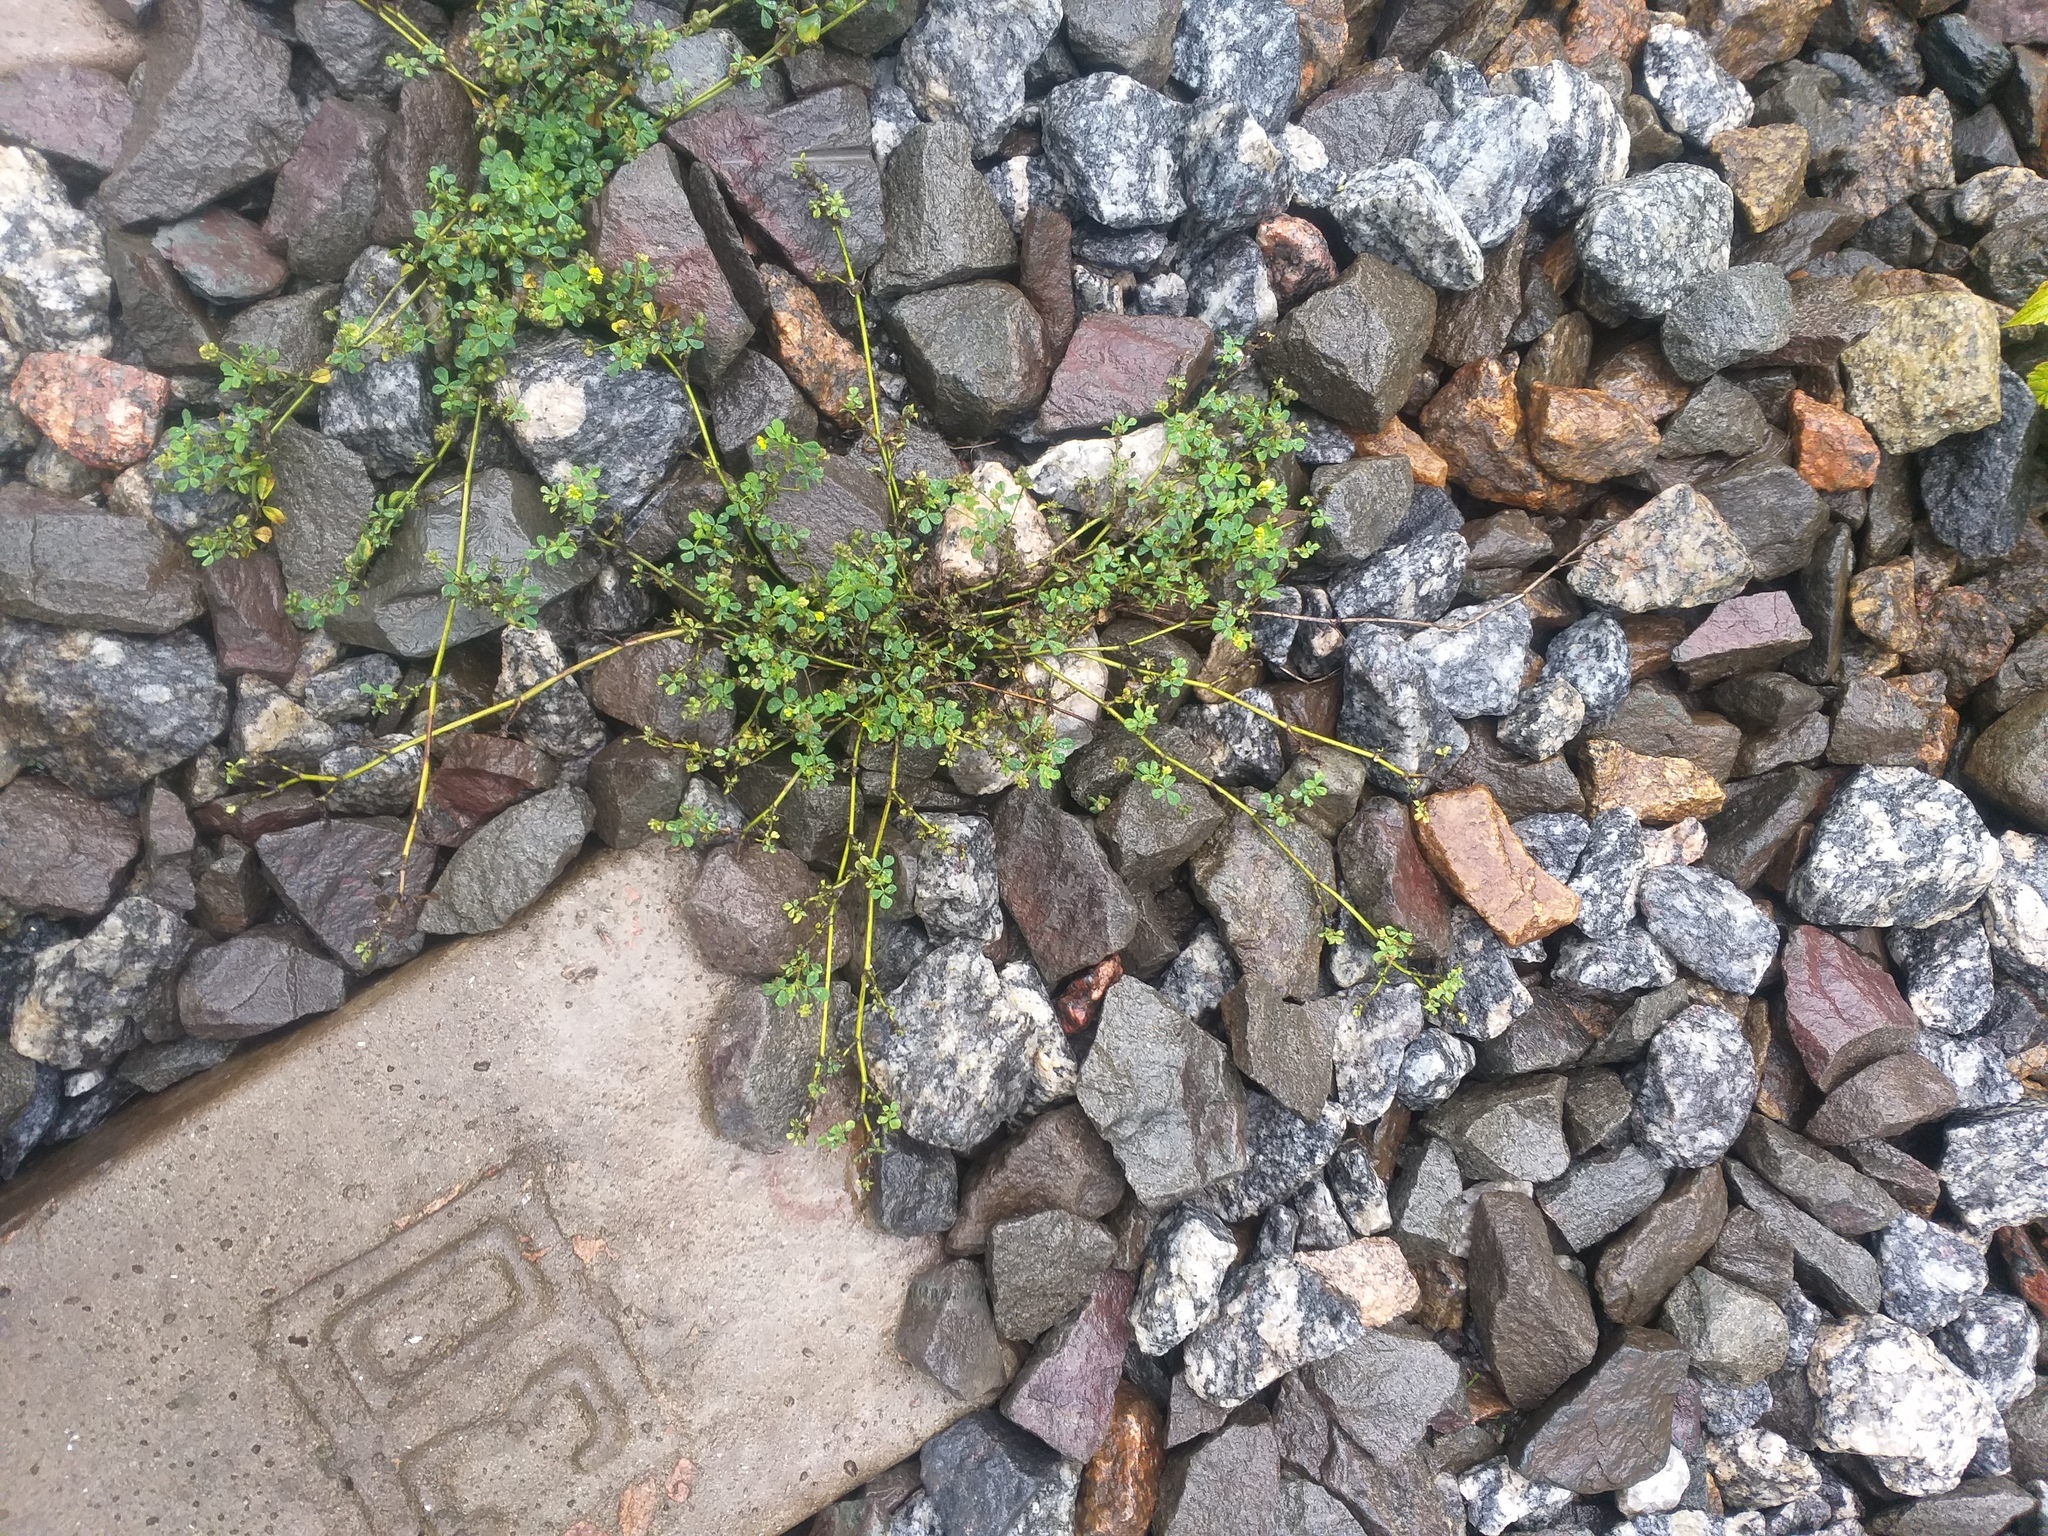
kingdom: Plantae
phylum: Tracheophyta
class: Magnoliopsida
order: Fabales
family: Fabaceae
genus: Medicago
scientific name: Medicago lupulina
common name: Black medick
